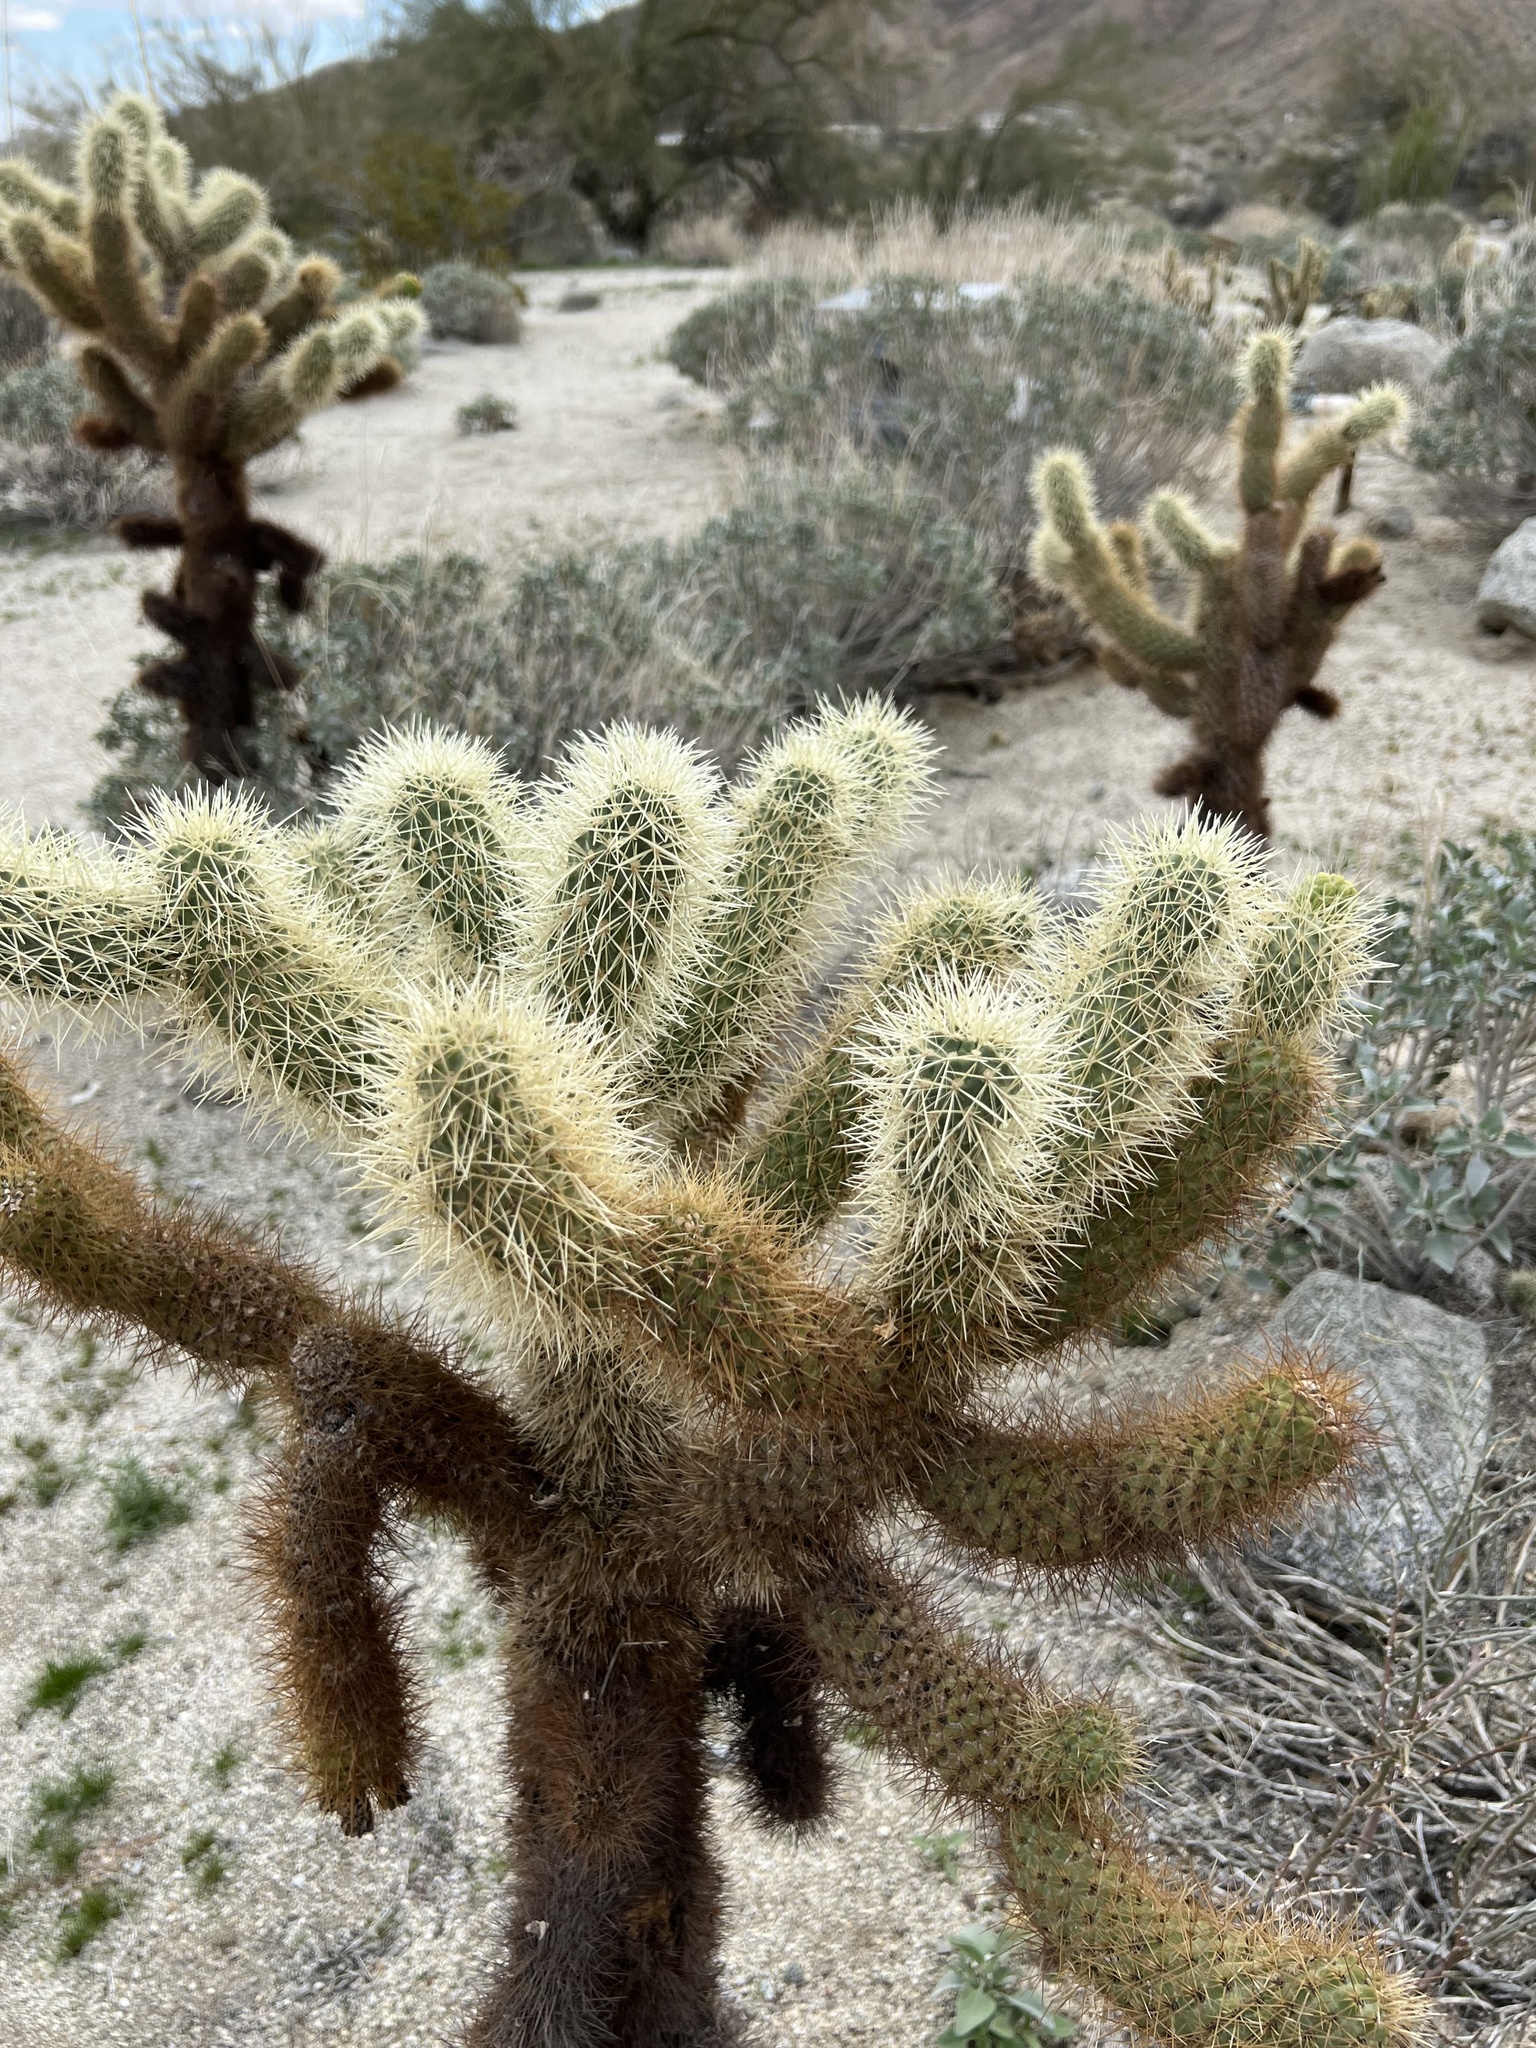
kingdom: Plantae
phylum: Tracheophyta
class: Magnoliopsida
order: Caryophyllales
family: Cactaceae
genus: Cylindropuntia
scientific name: Cylindropuntia fosbergii
